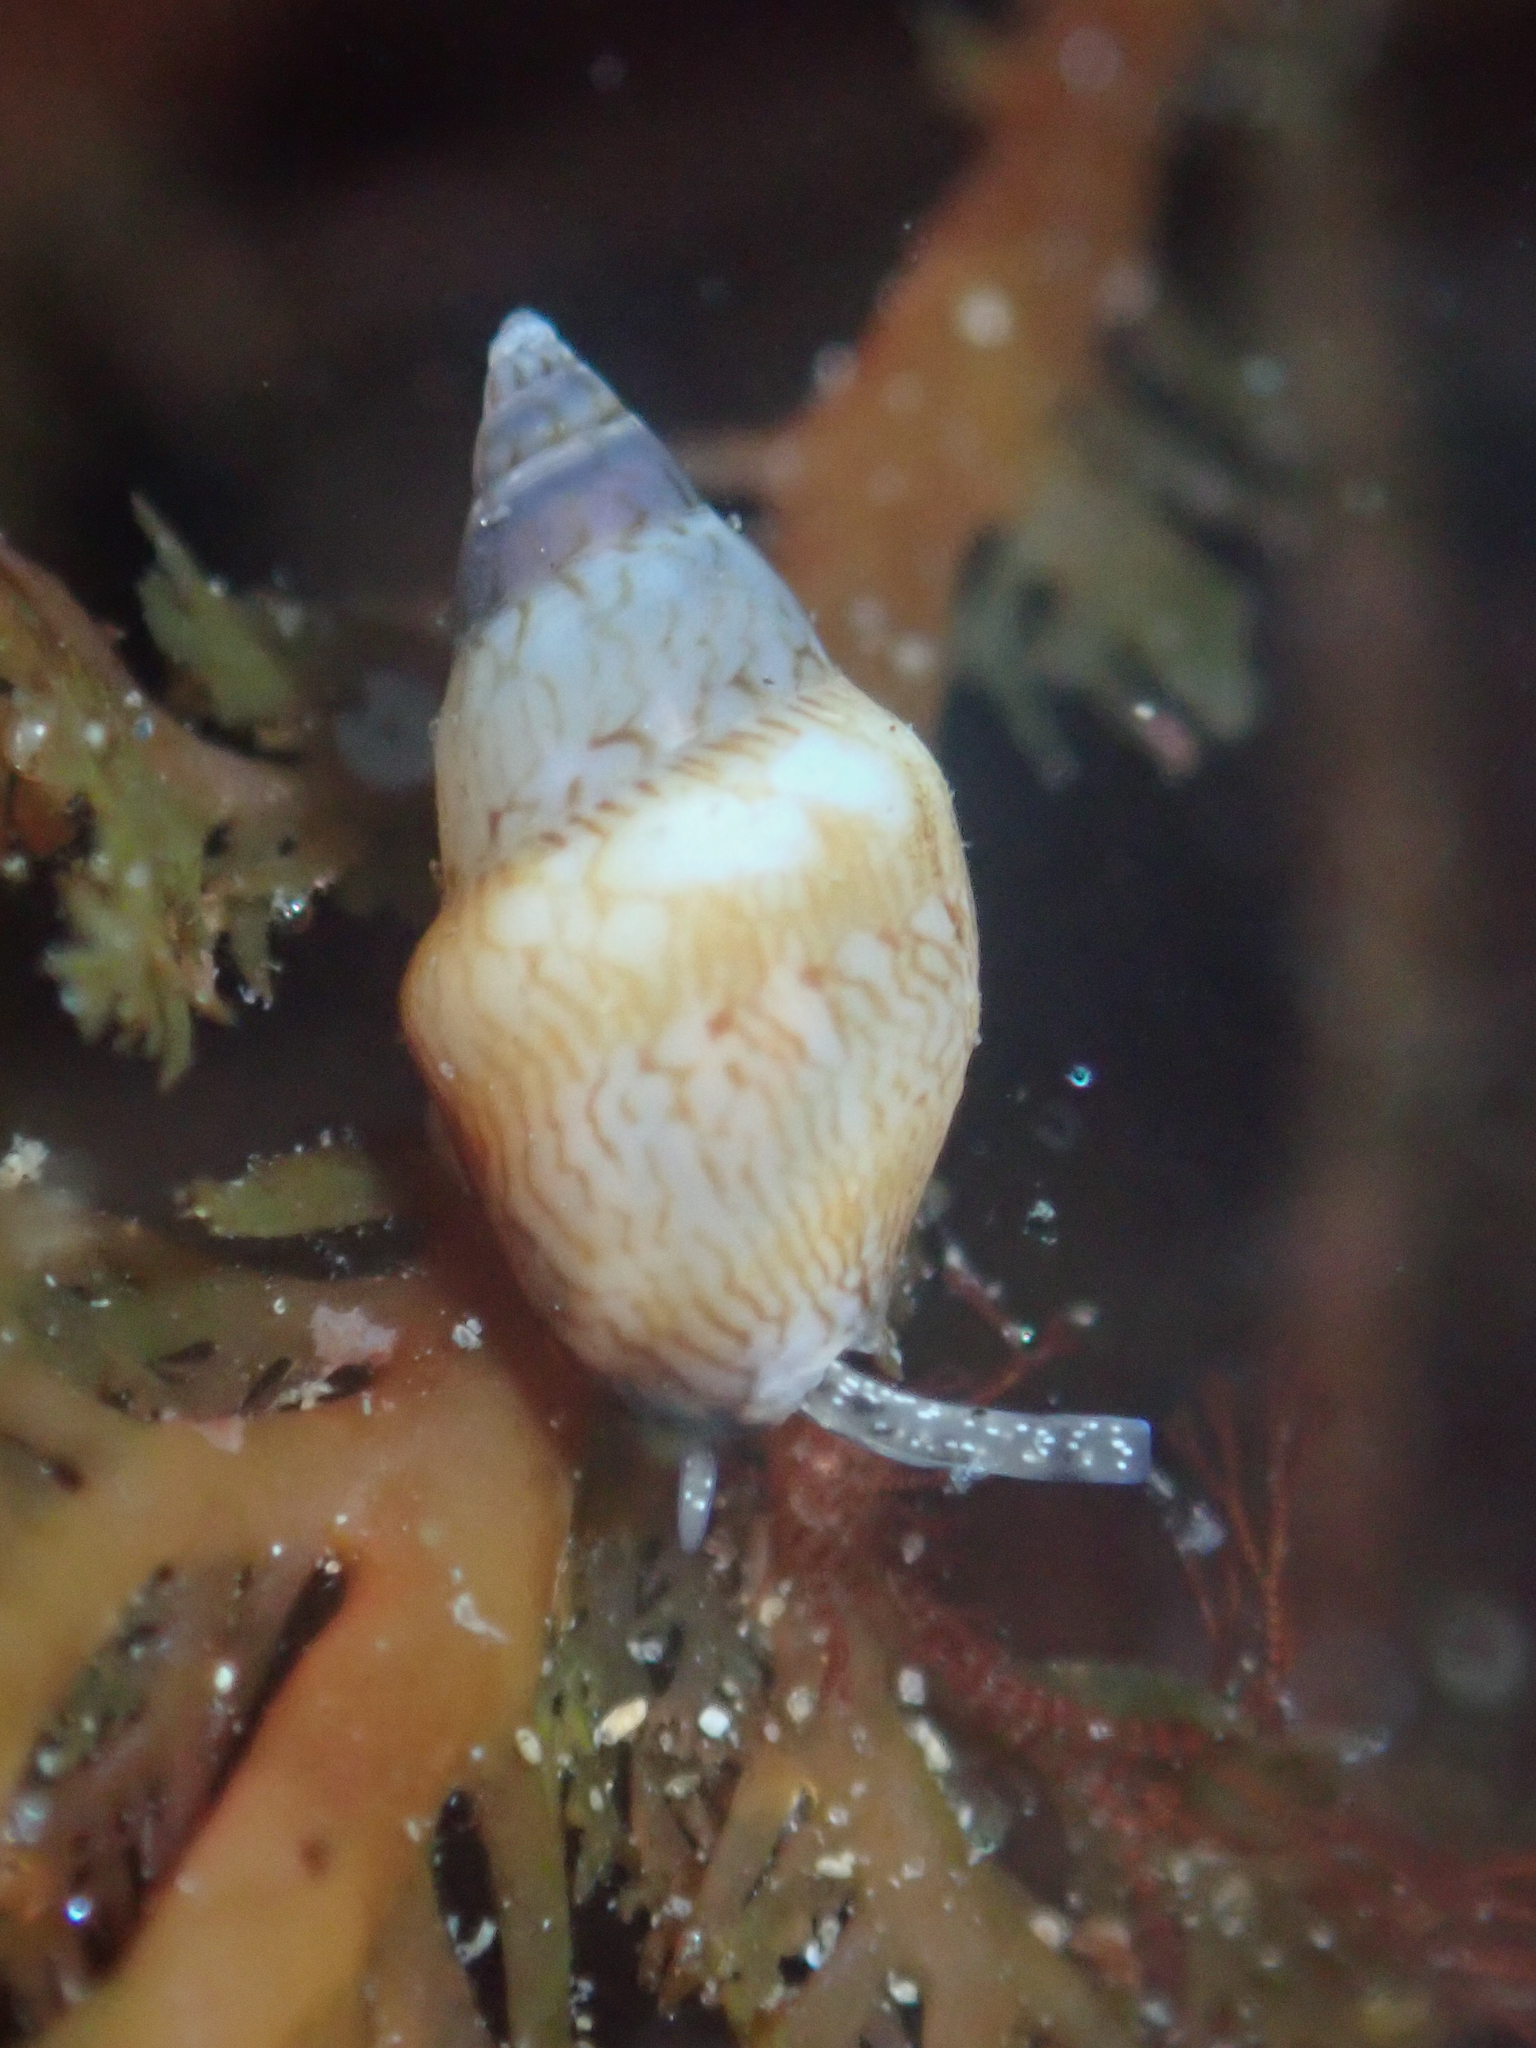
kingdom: Animalia
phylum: Mollusca
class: Gastropoda
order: Neogastropoda
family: Columbellidae
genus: Alia
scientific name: Alia carinata
